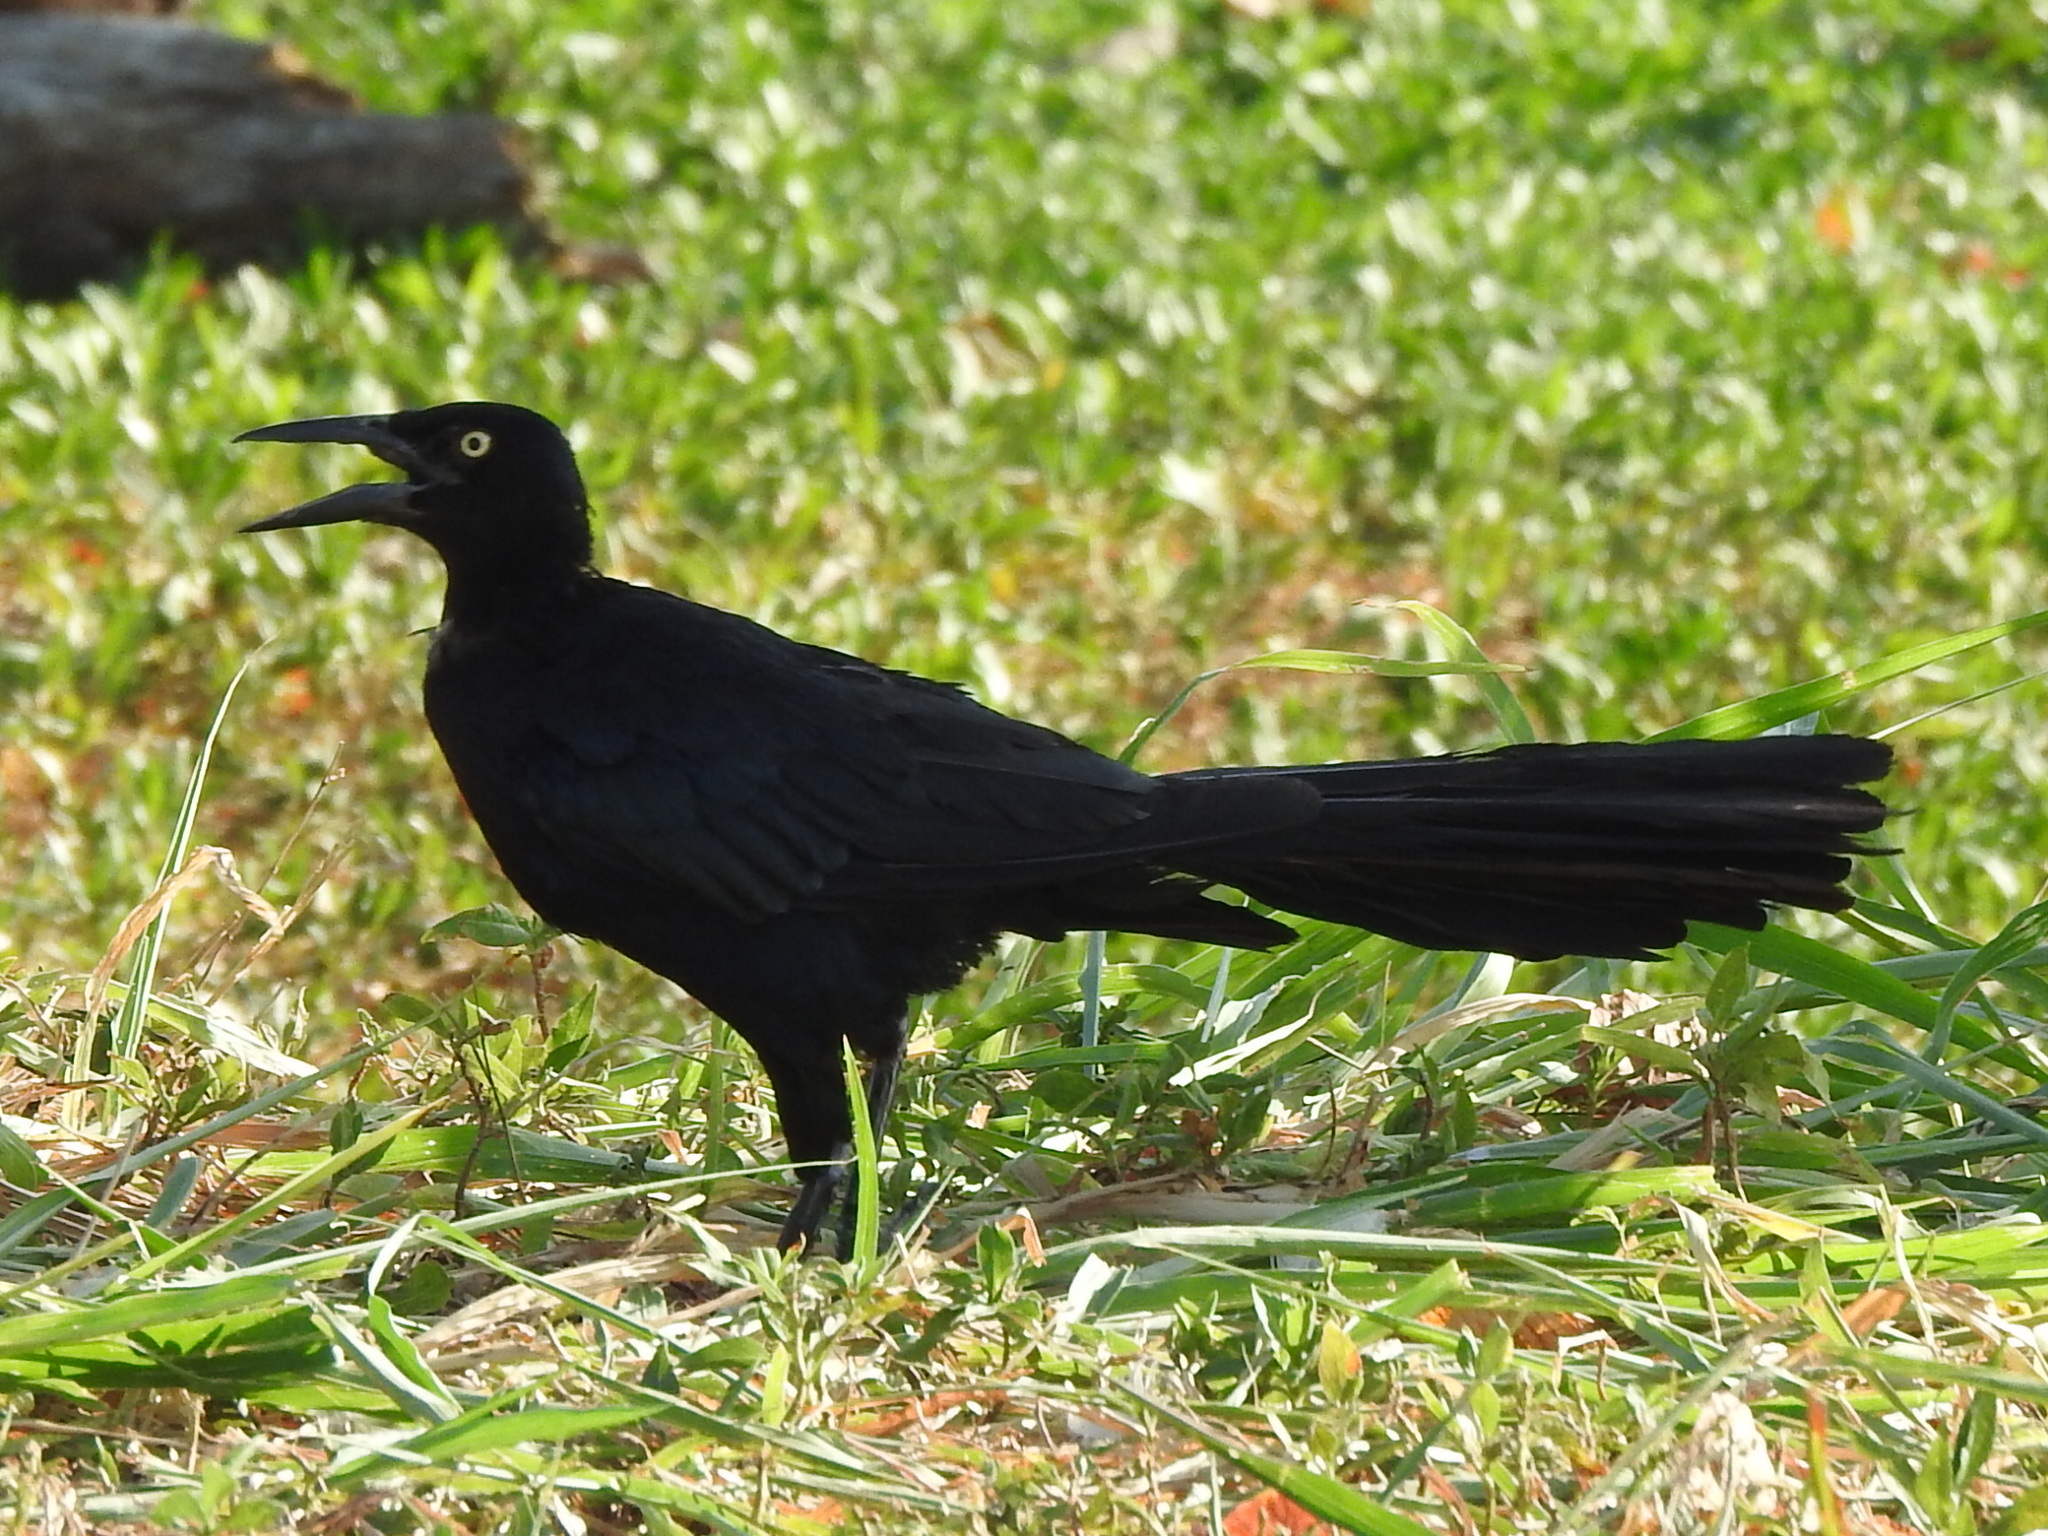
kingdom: Animalia
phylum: Chordata
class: Aves
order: Passeriformes
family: Icteridae
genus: Quiscalus
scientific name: Quiscalus mexicanus
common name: Great-tailed grackle
